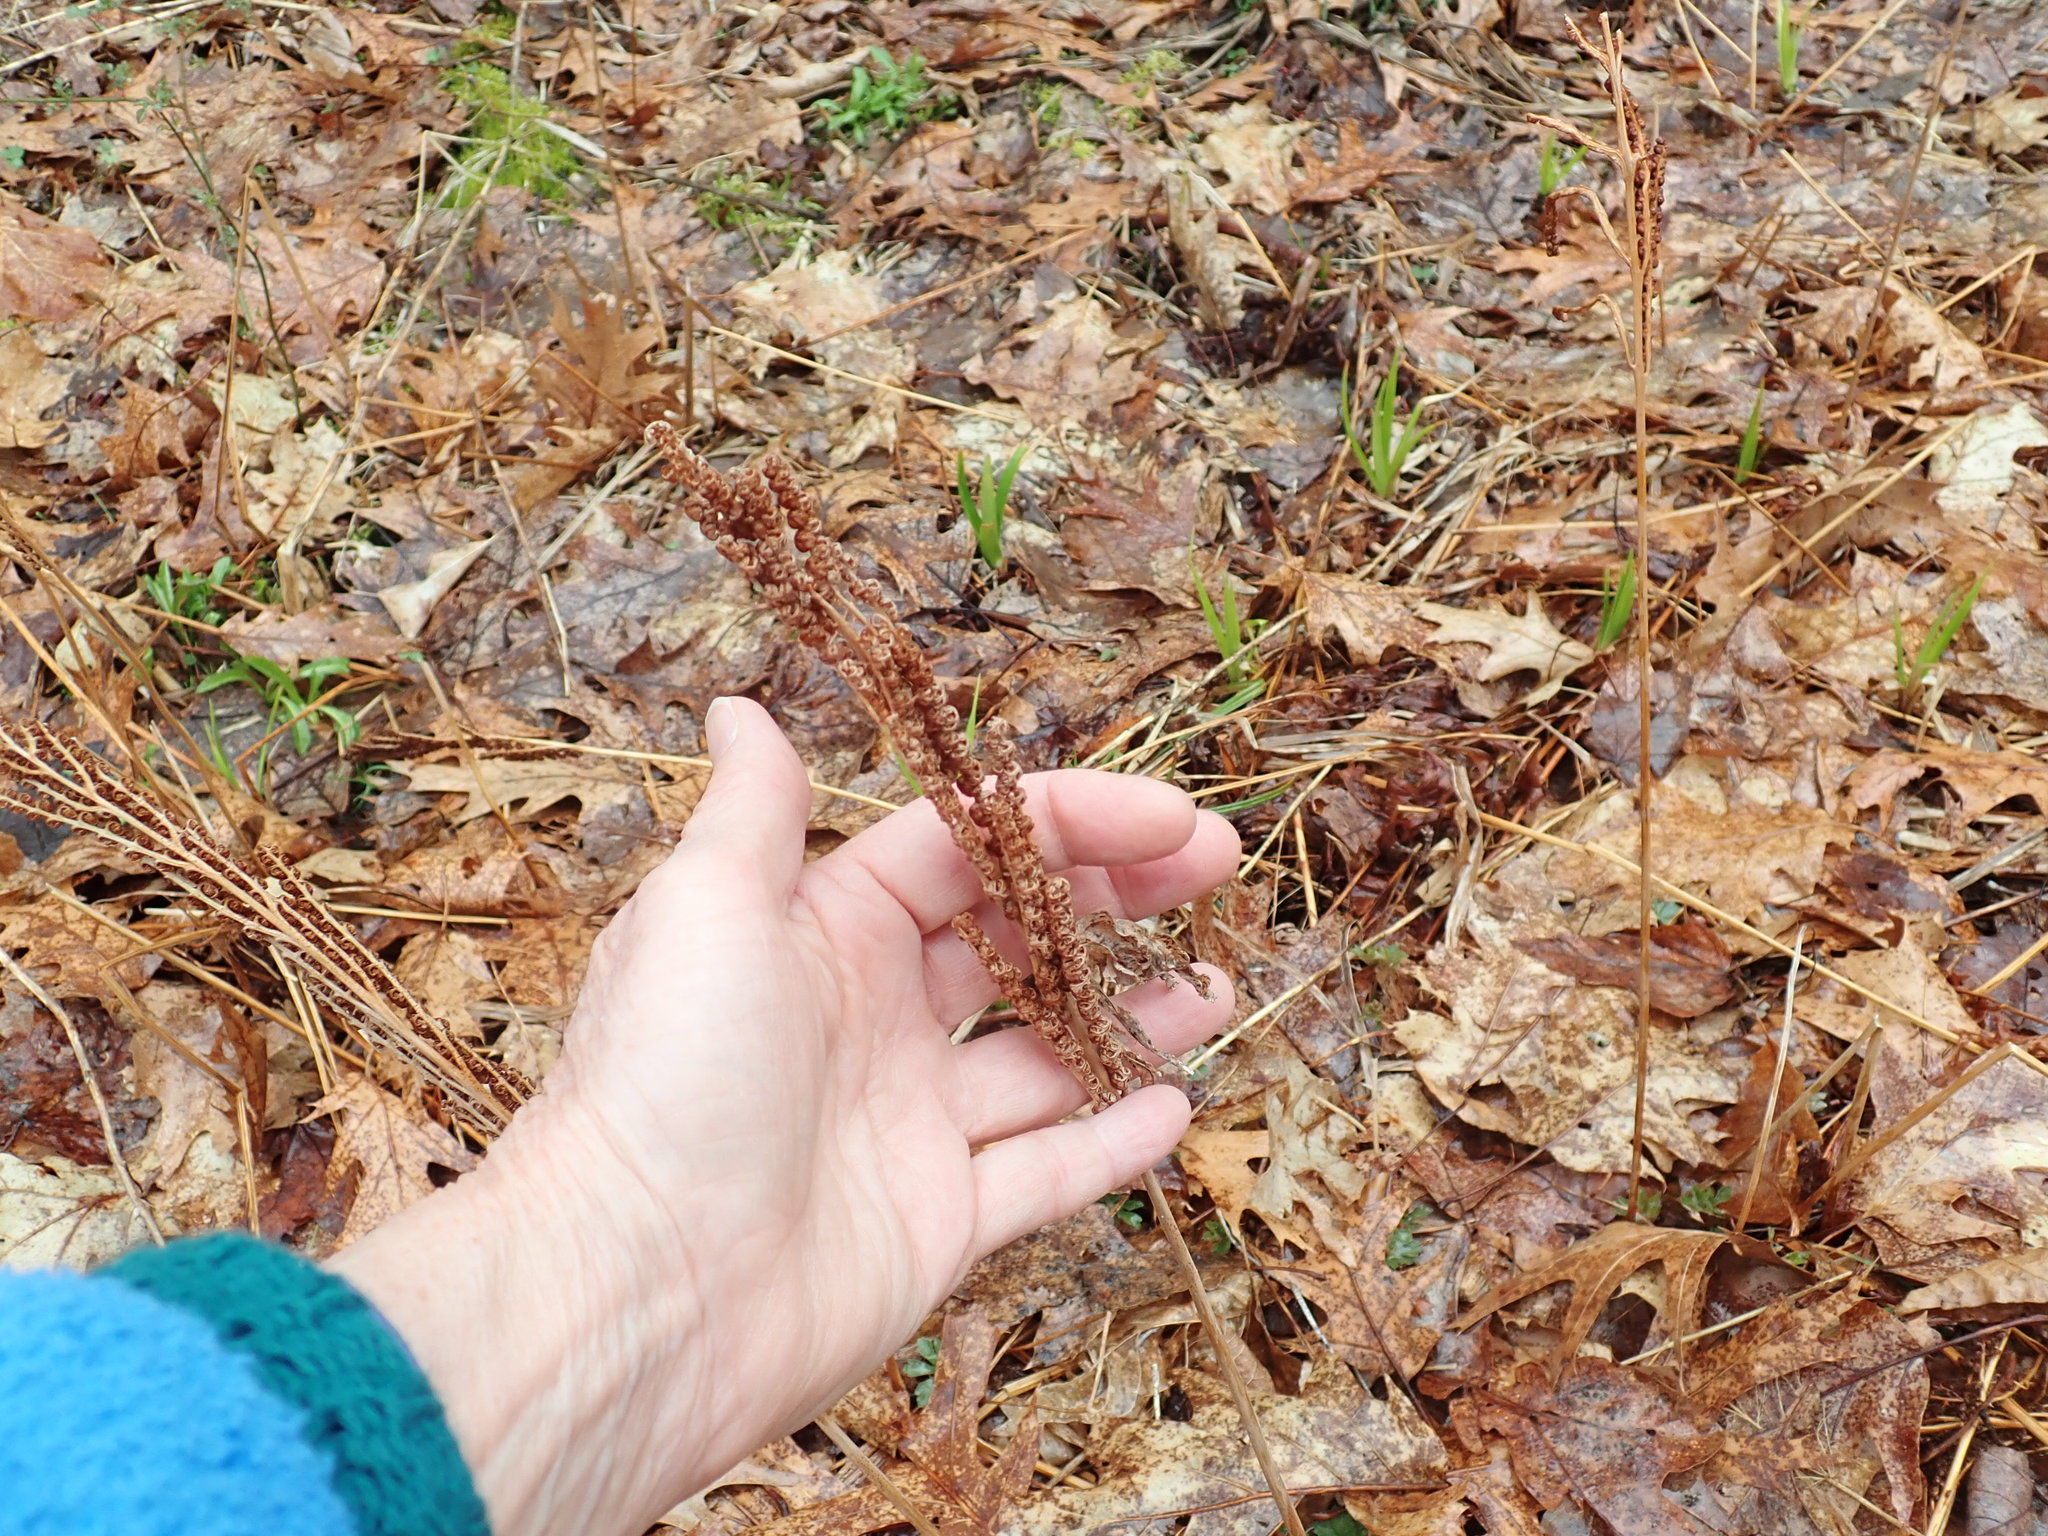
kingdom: Plantae
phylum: Tracheophyta
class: Polypodiopsida
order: Polypodiales
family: Onocleaceae
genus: Onoclea
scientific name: Onoclea sensibilis
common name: Sensitive fern
